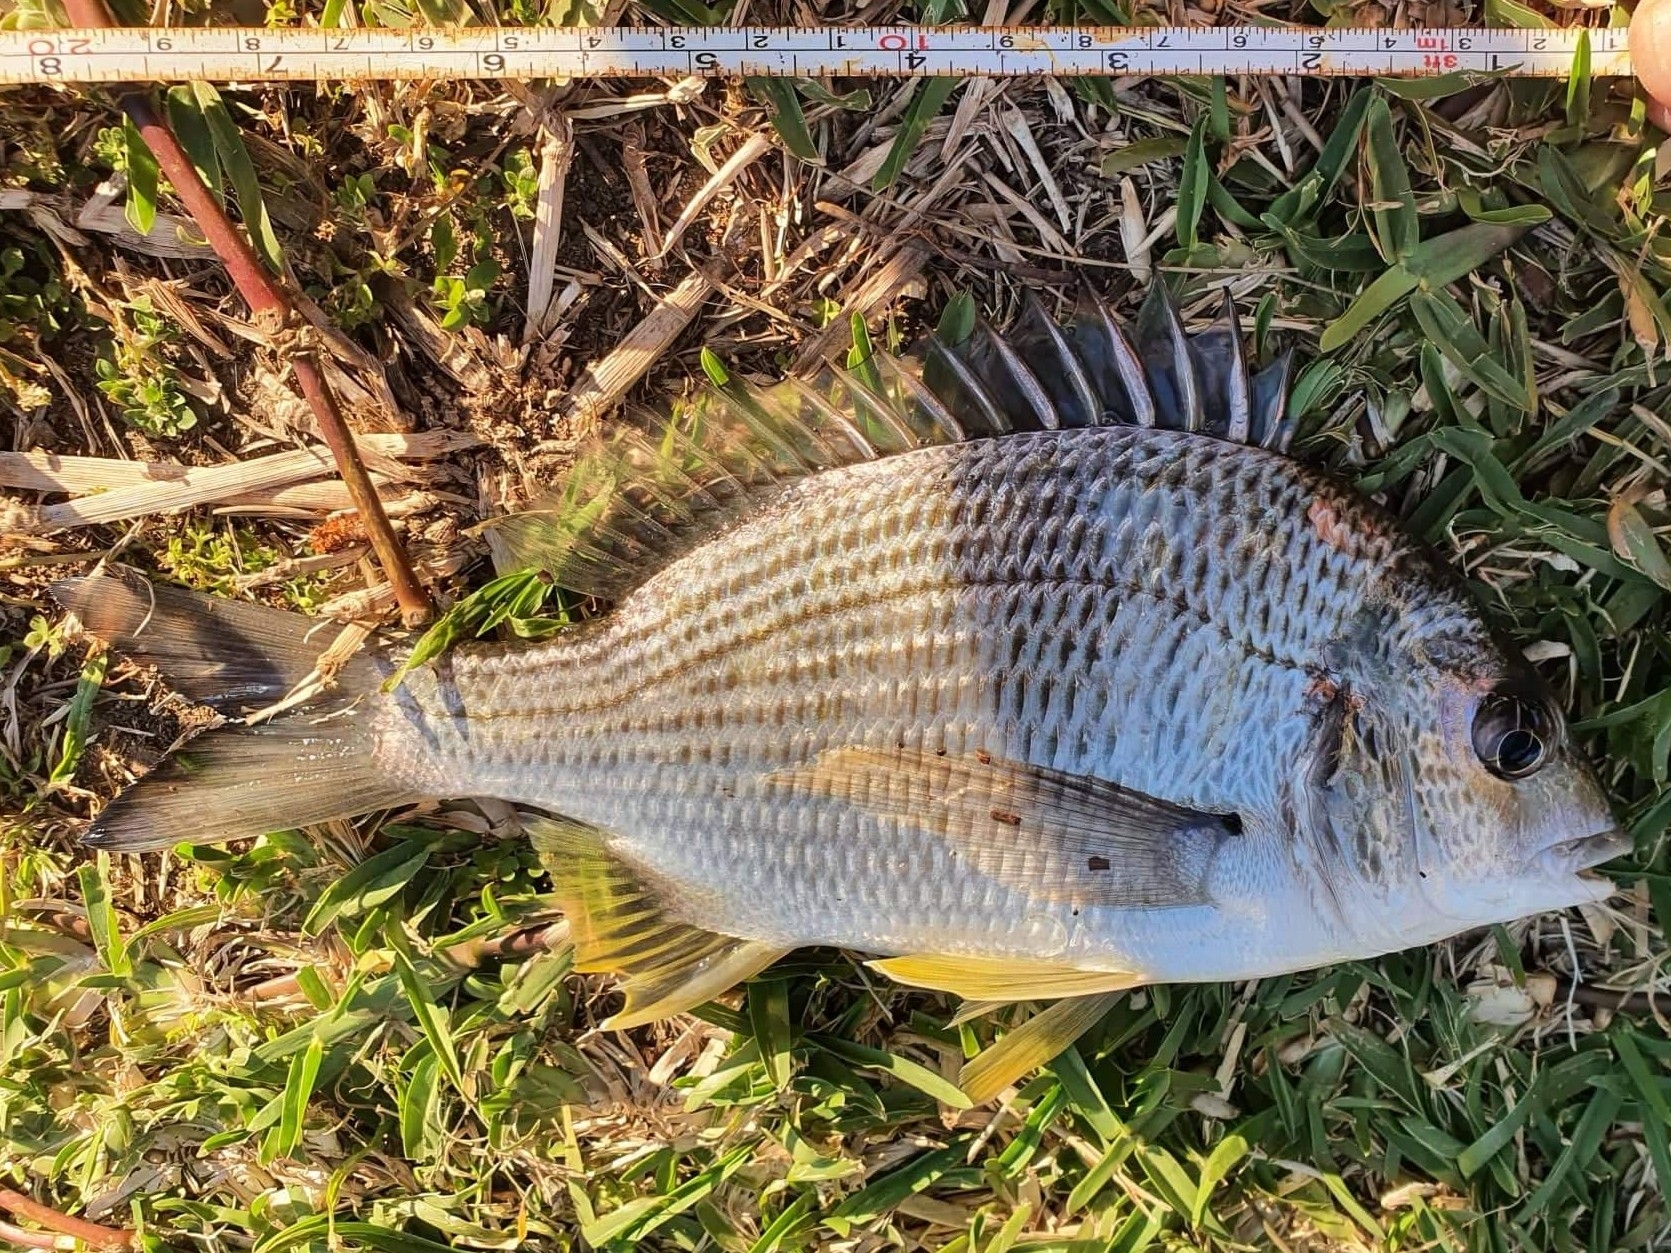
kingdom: Animalia
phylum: Chordata
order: Perciformes
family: Sparidae
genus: Acanthopagrus
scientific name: Acanthopagrus australis
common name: Surf bream
